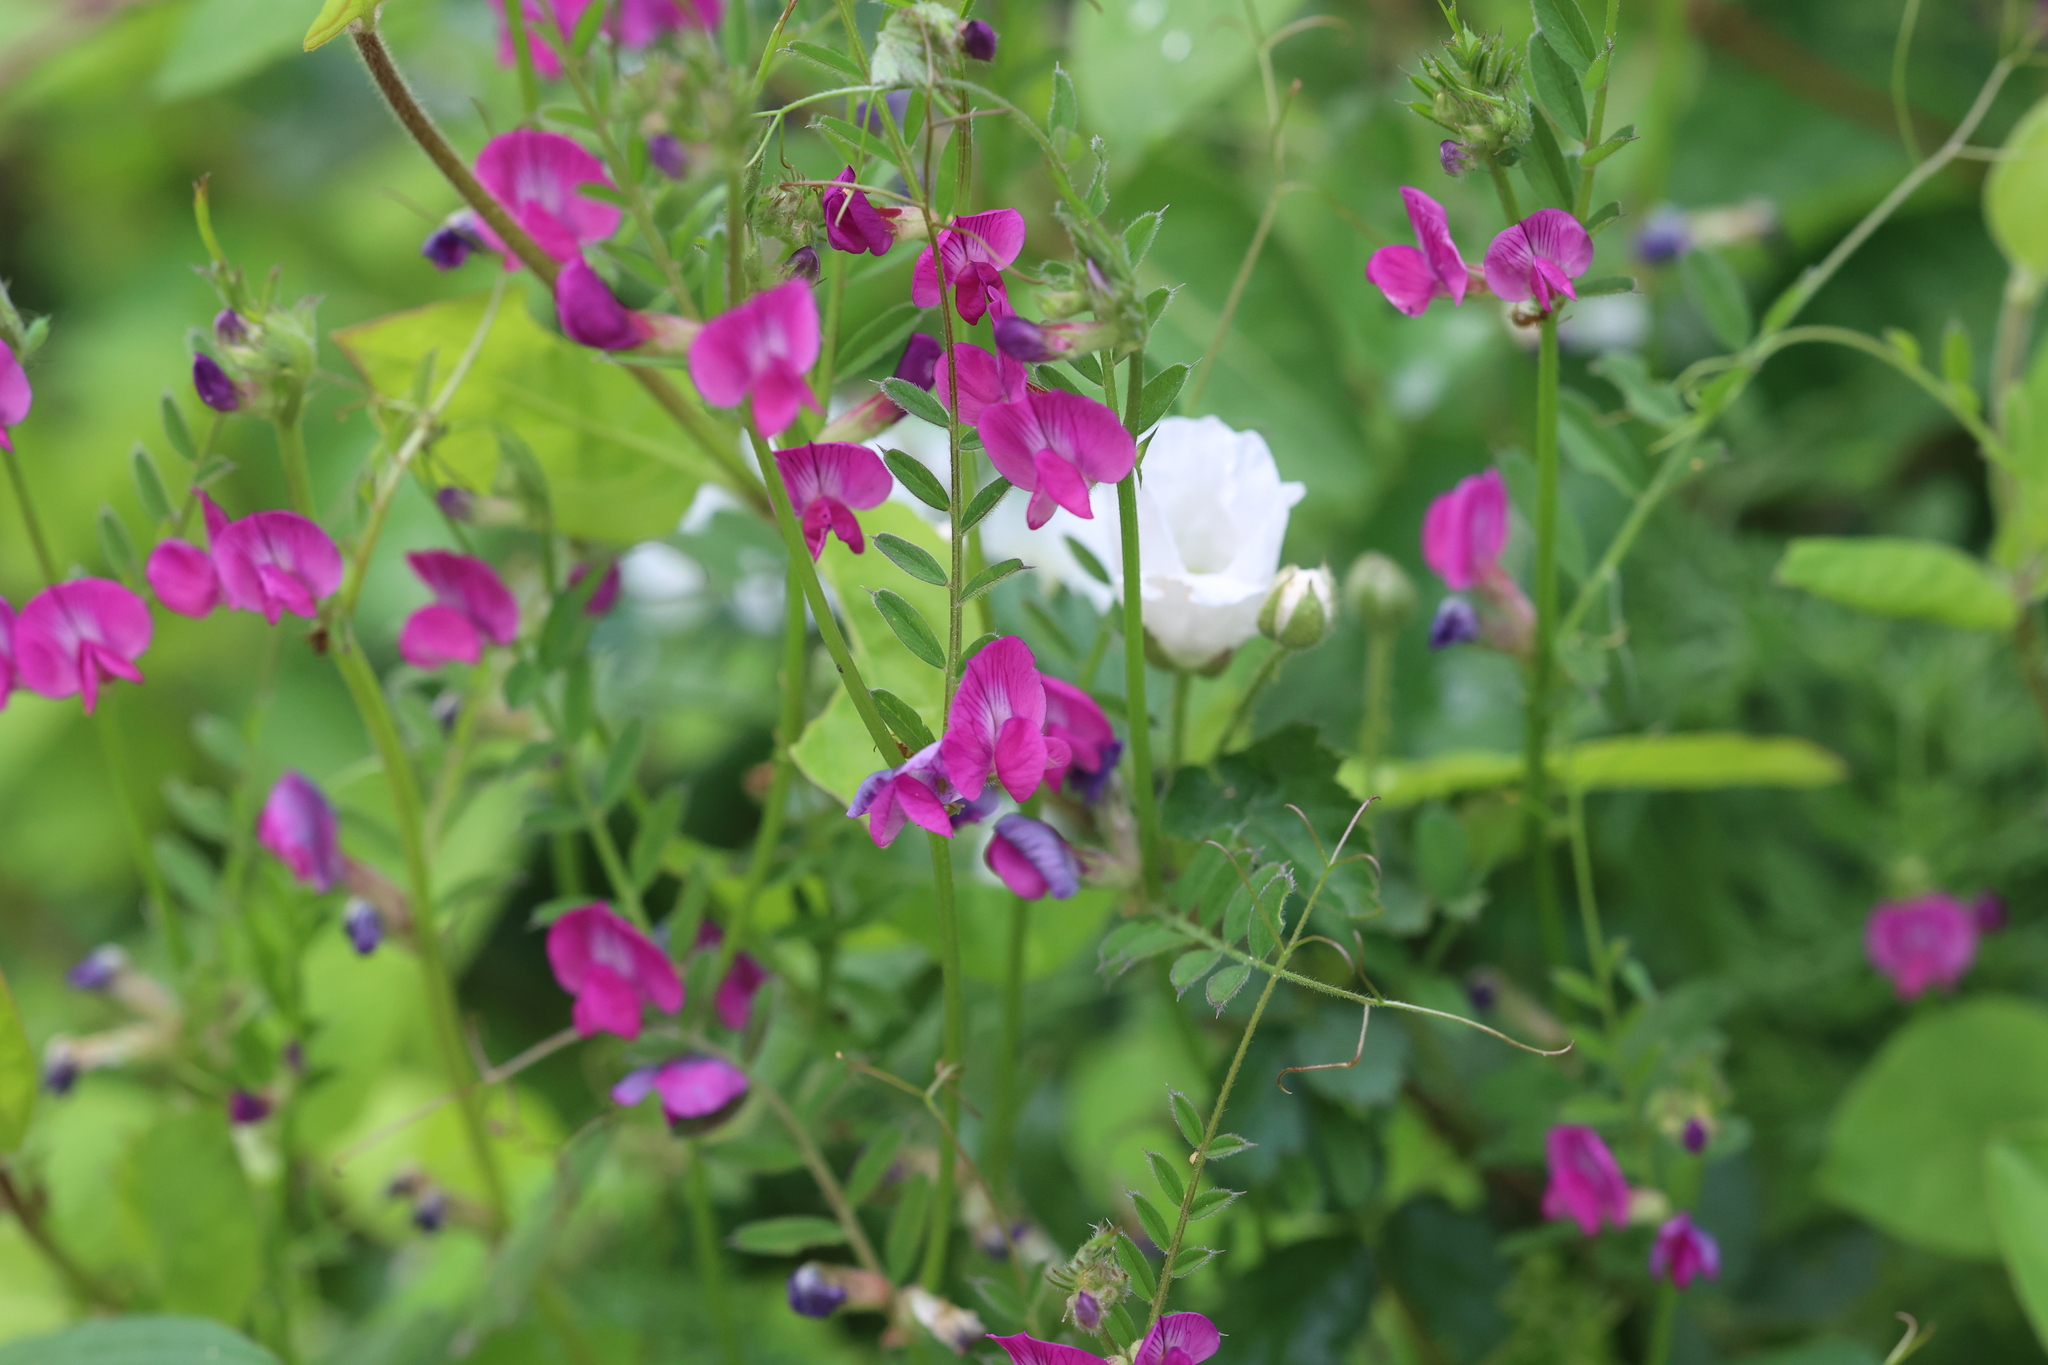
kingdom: Plantae
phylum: Tracheophyta
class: Magnoliopsida
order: Fabales
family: Fabaceae
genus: Vicia
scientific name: Vicia sativa
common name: Garden vetch
